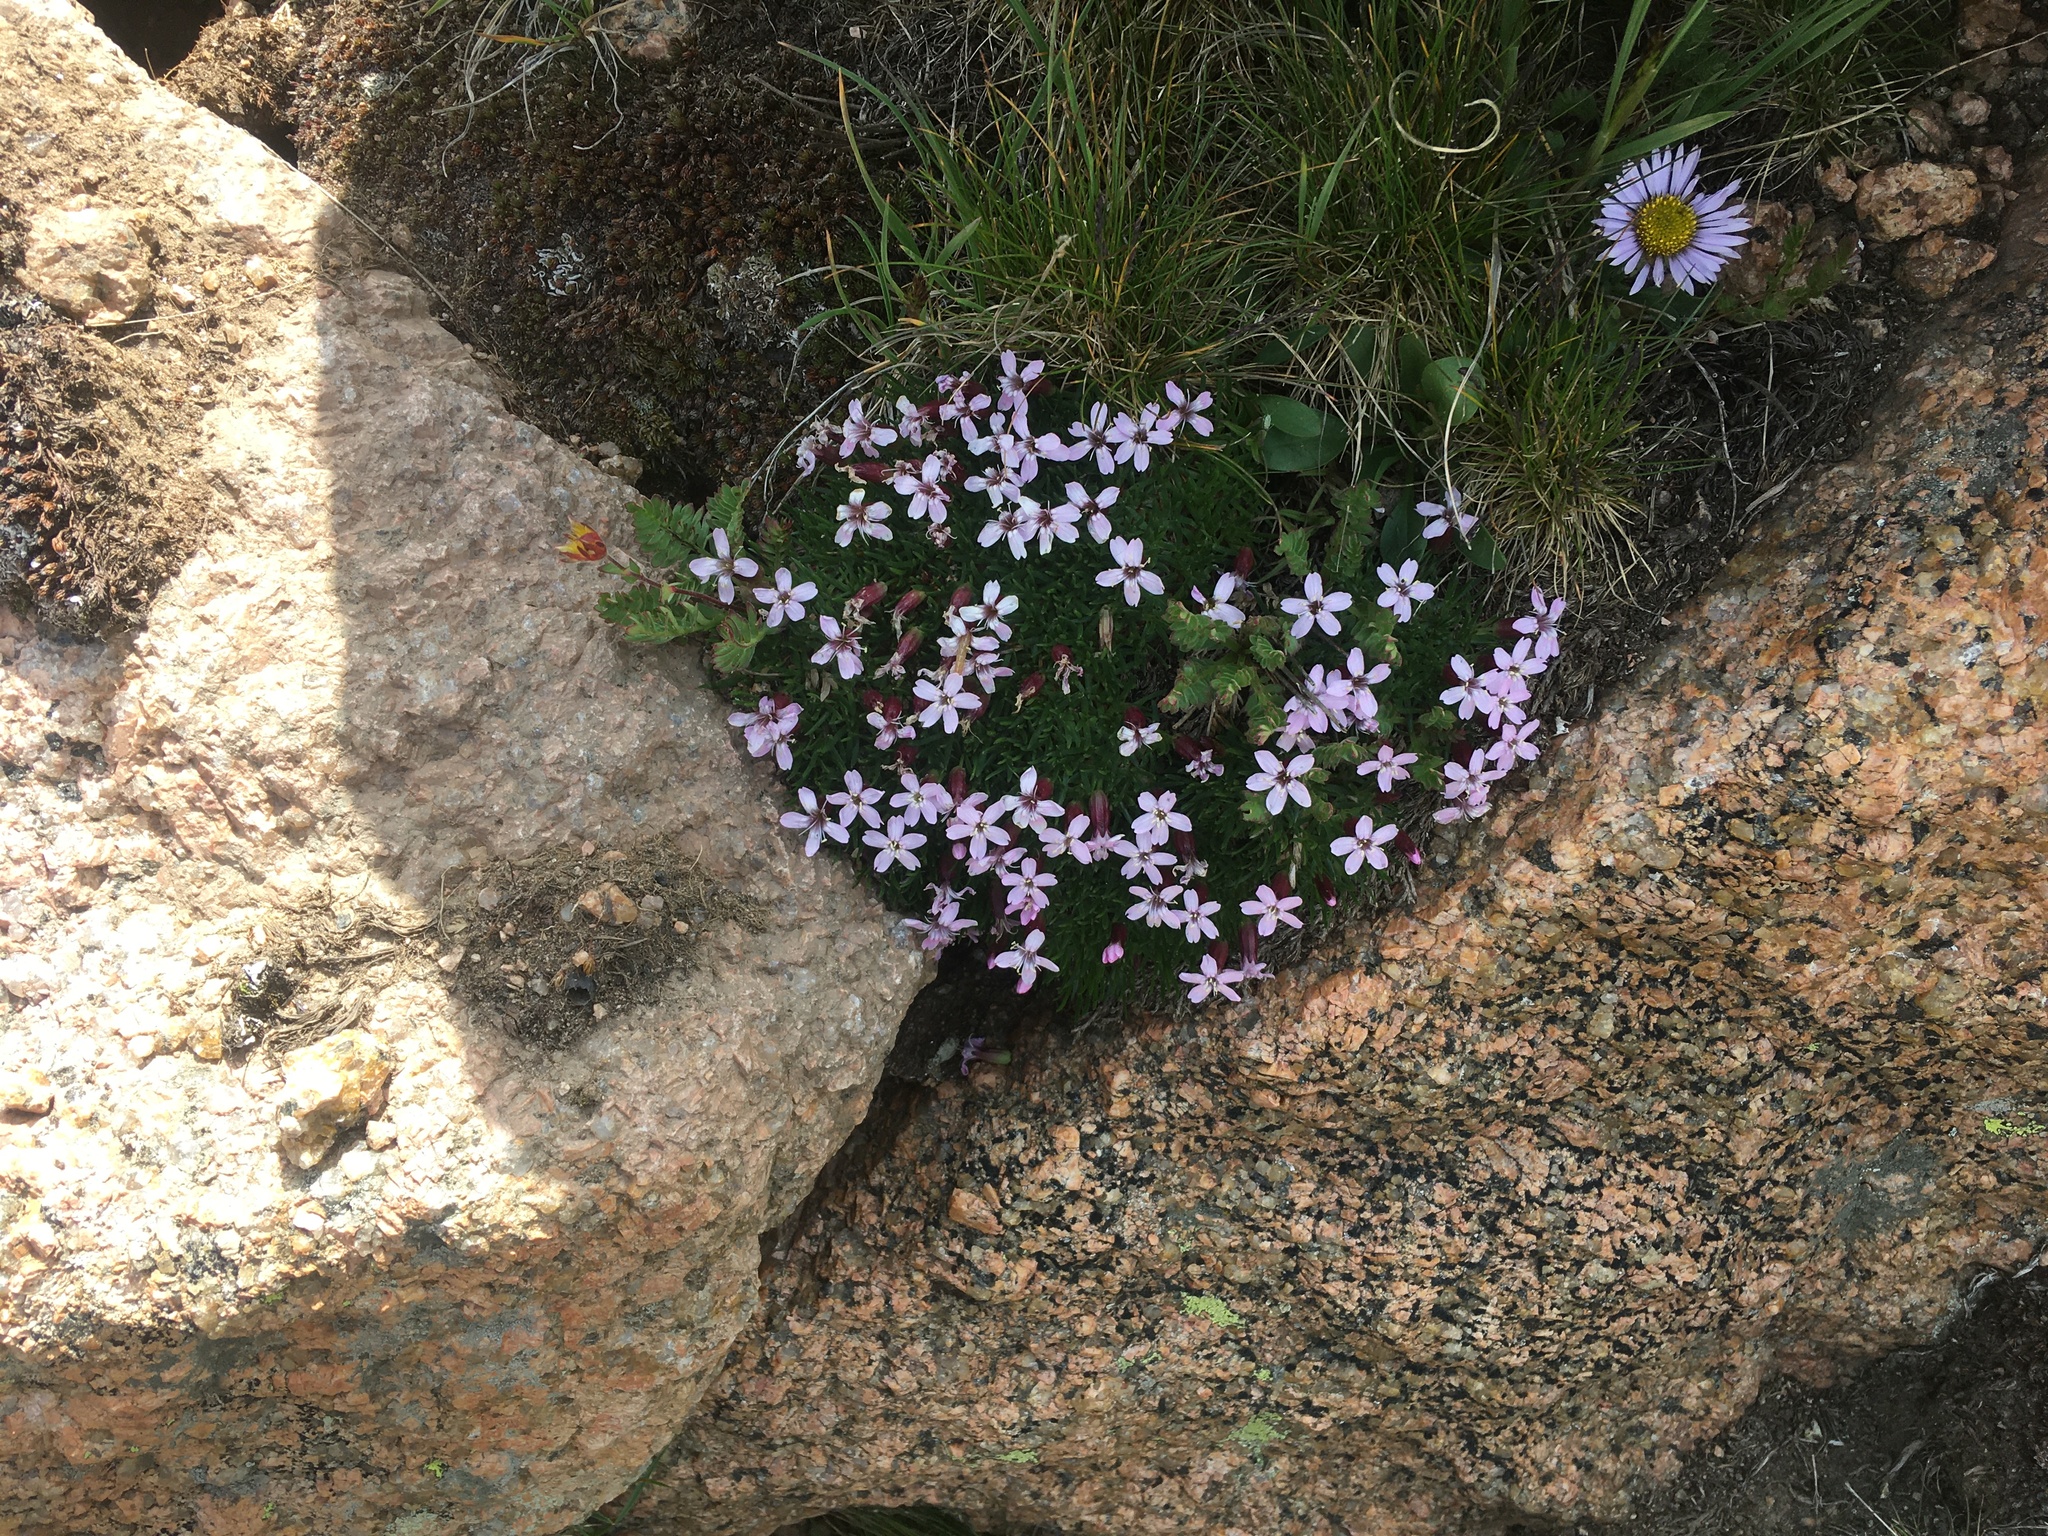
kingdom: Plantae
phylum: Tracheophyta
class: Magnoliopsida
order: Caryophyllales
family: Caryophyllaceae
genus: Silene
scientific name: Silene acaulis
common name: Moss campion
